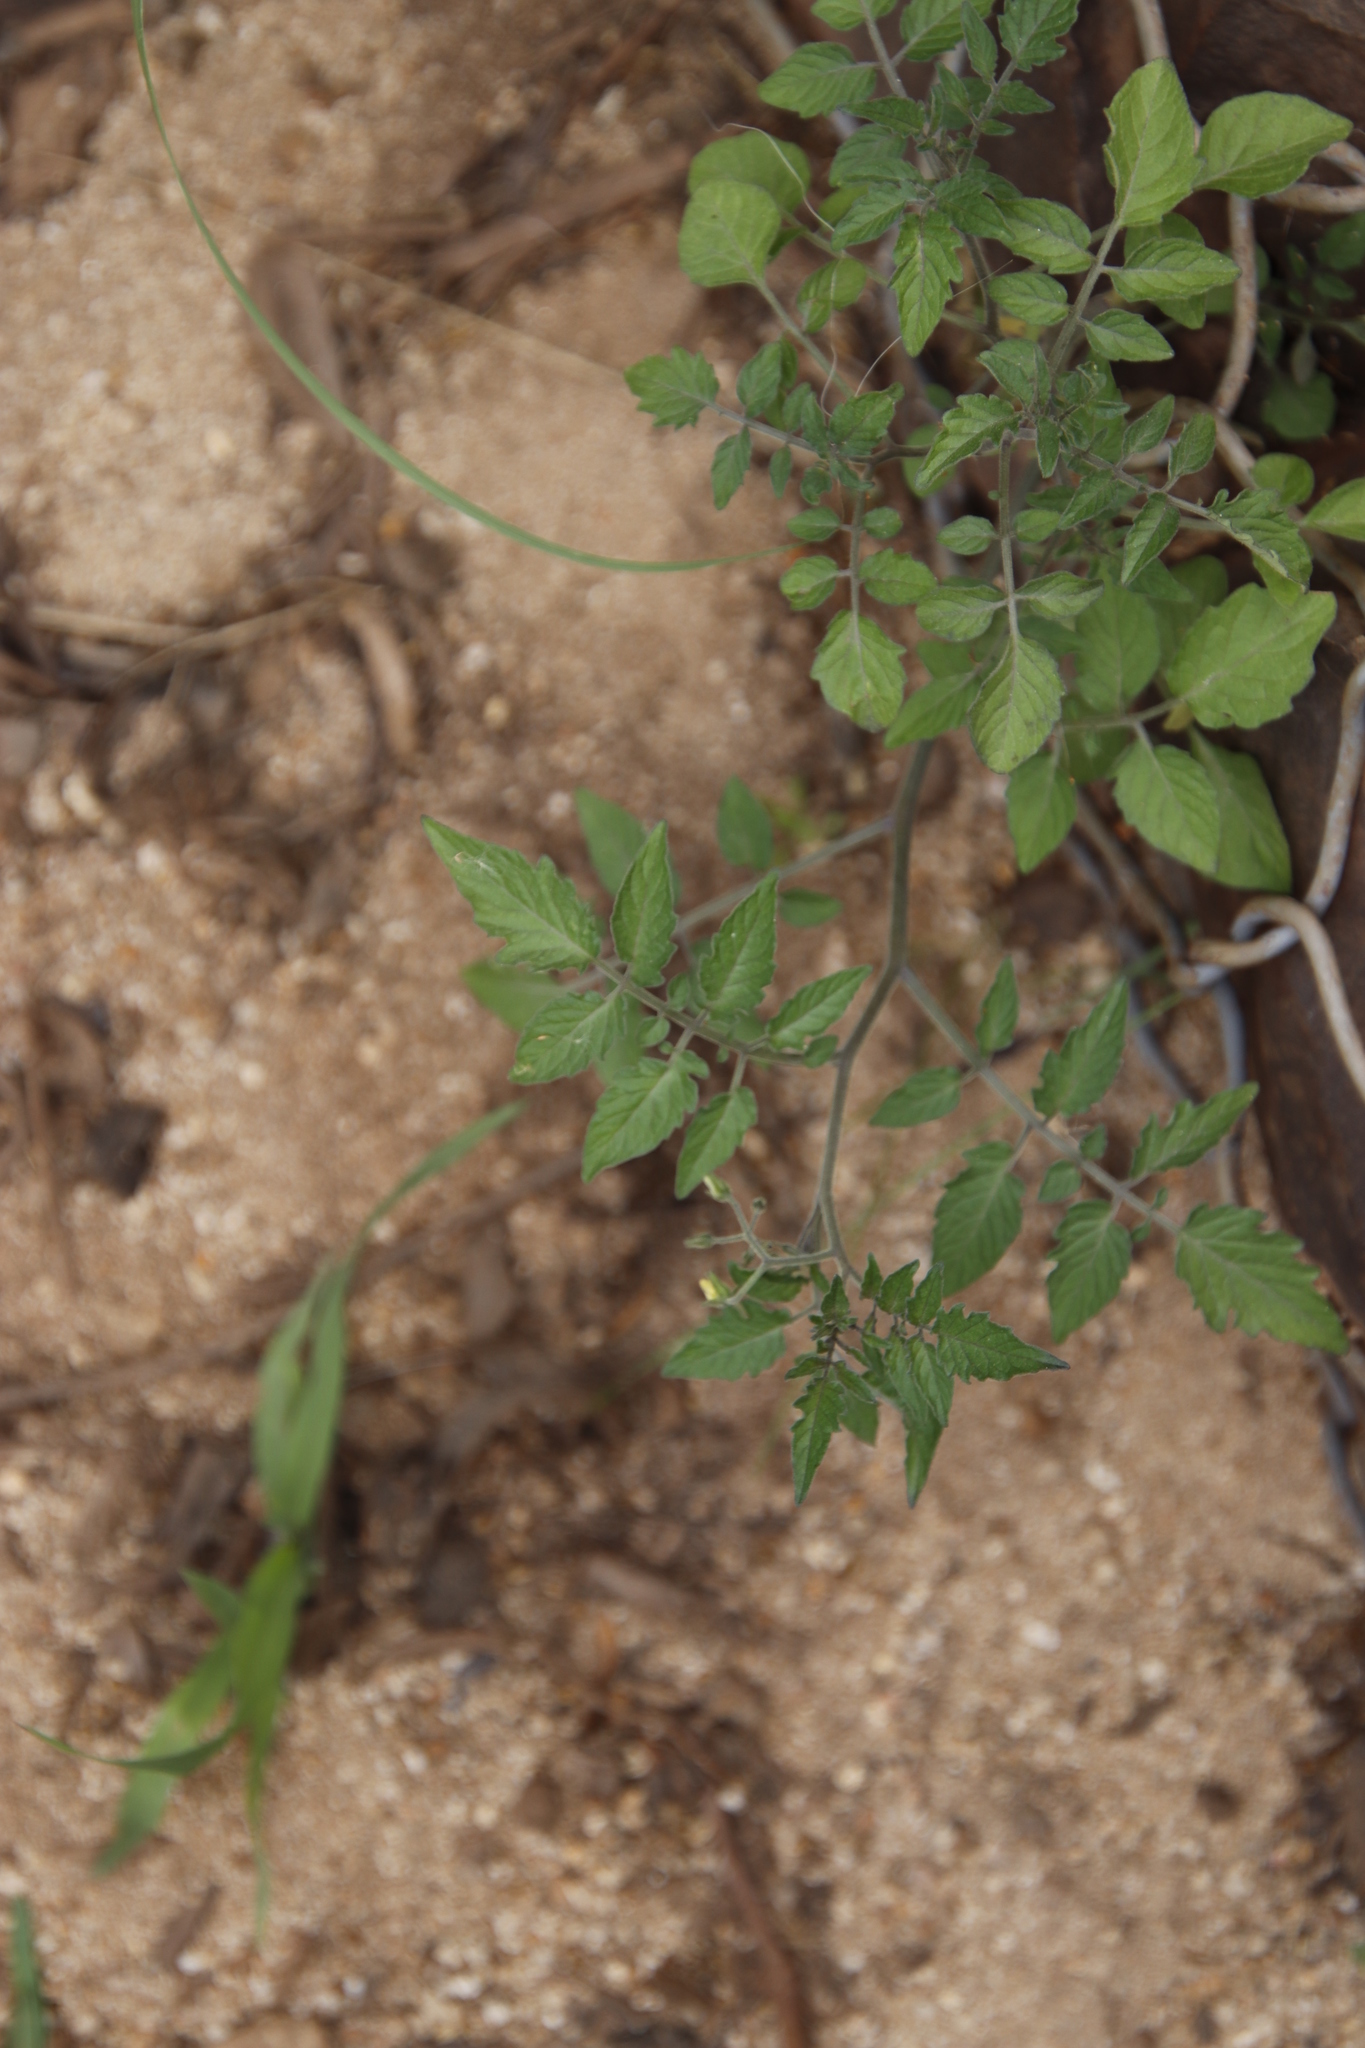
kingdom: Plantae
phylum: Tracheophyta
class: Magnoliopsida
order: Solanales
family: Solanaceae
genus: Solanum
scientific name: Solanum lycopersicum
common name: Garden tomato
